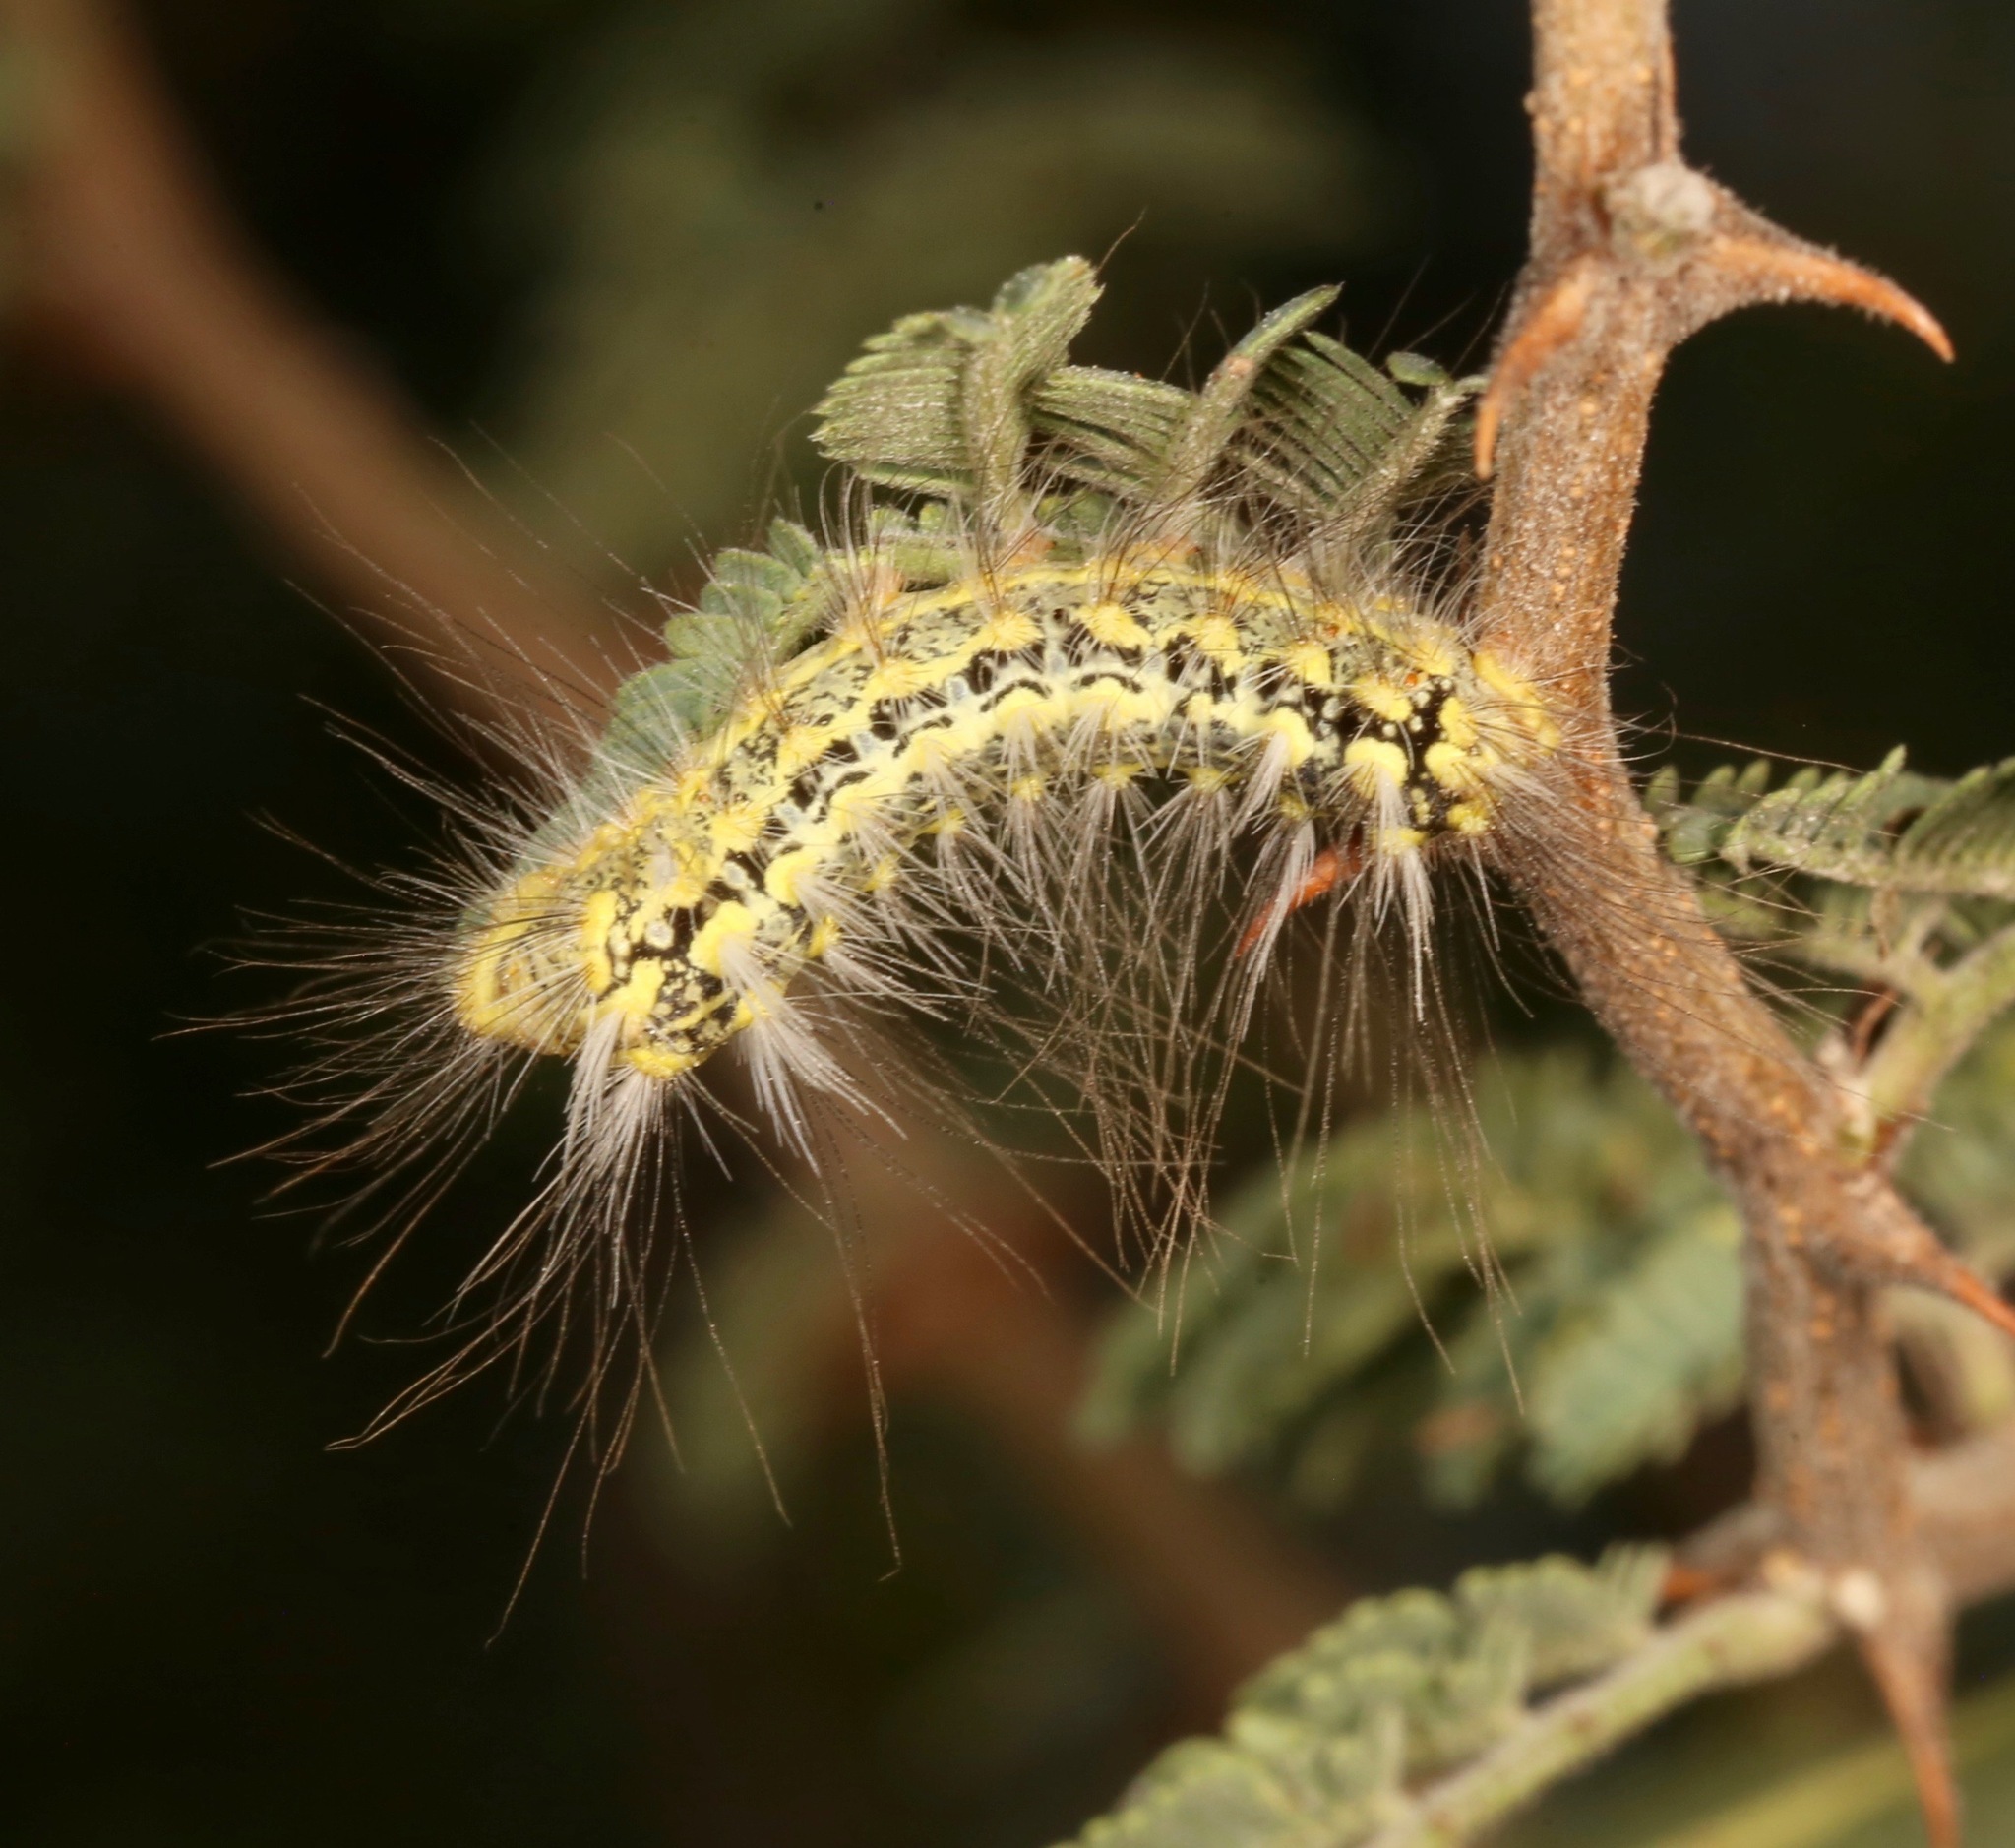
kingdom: Animalia
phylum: Arthropoda
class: Insecta
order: Lepidoptera
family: Megalopygidae
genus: Norape
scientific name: Norape tener
